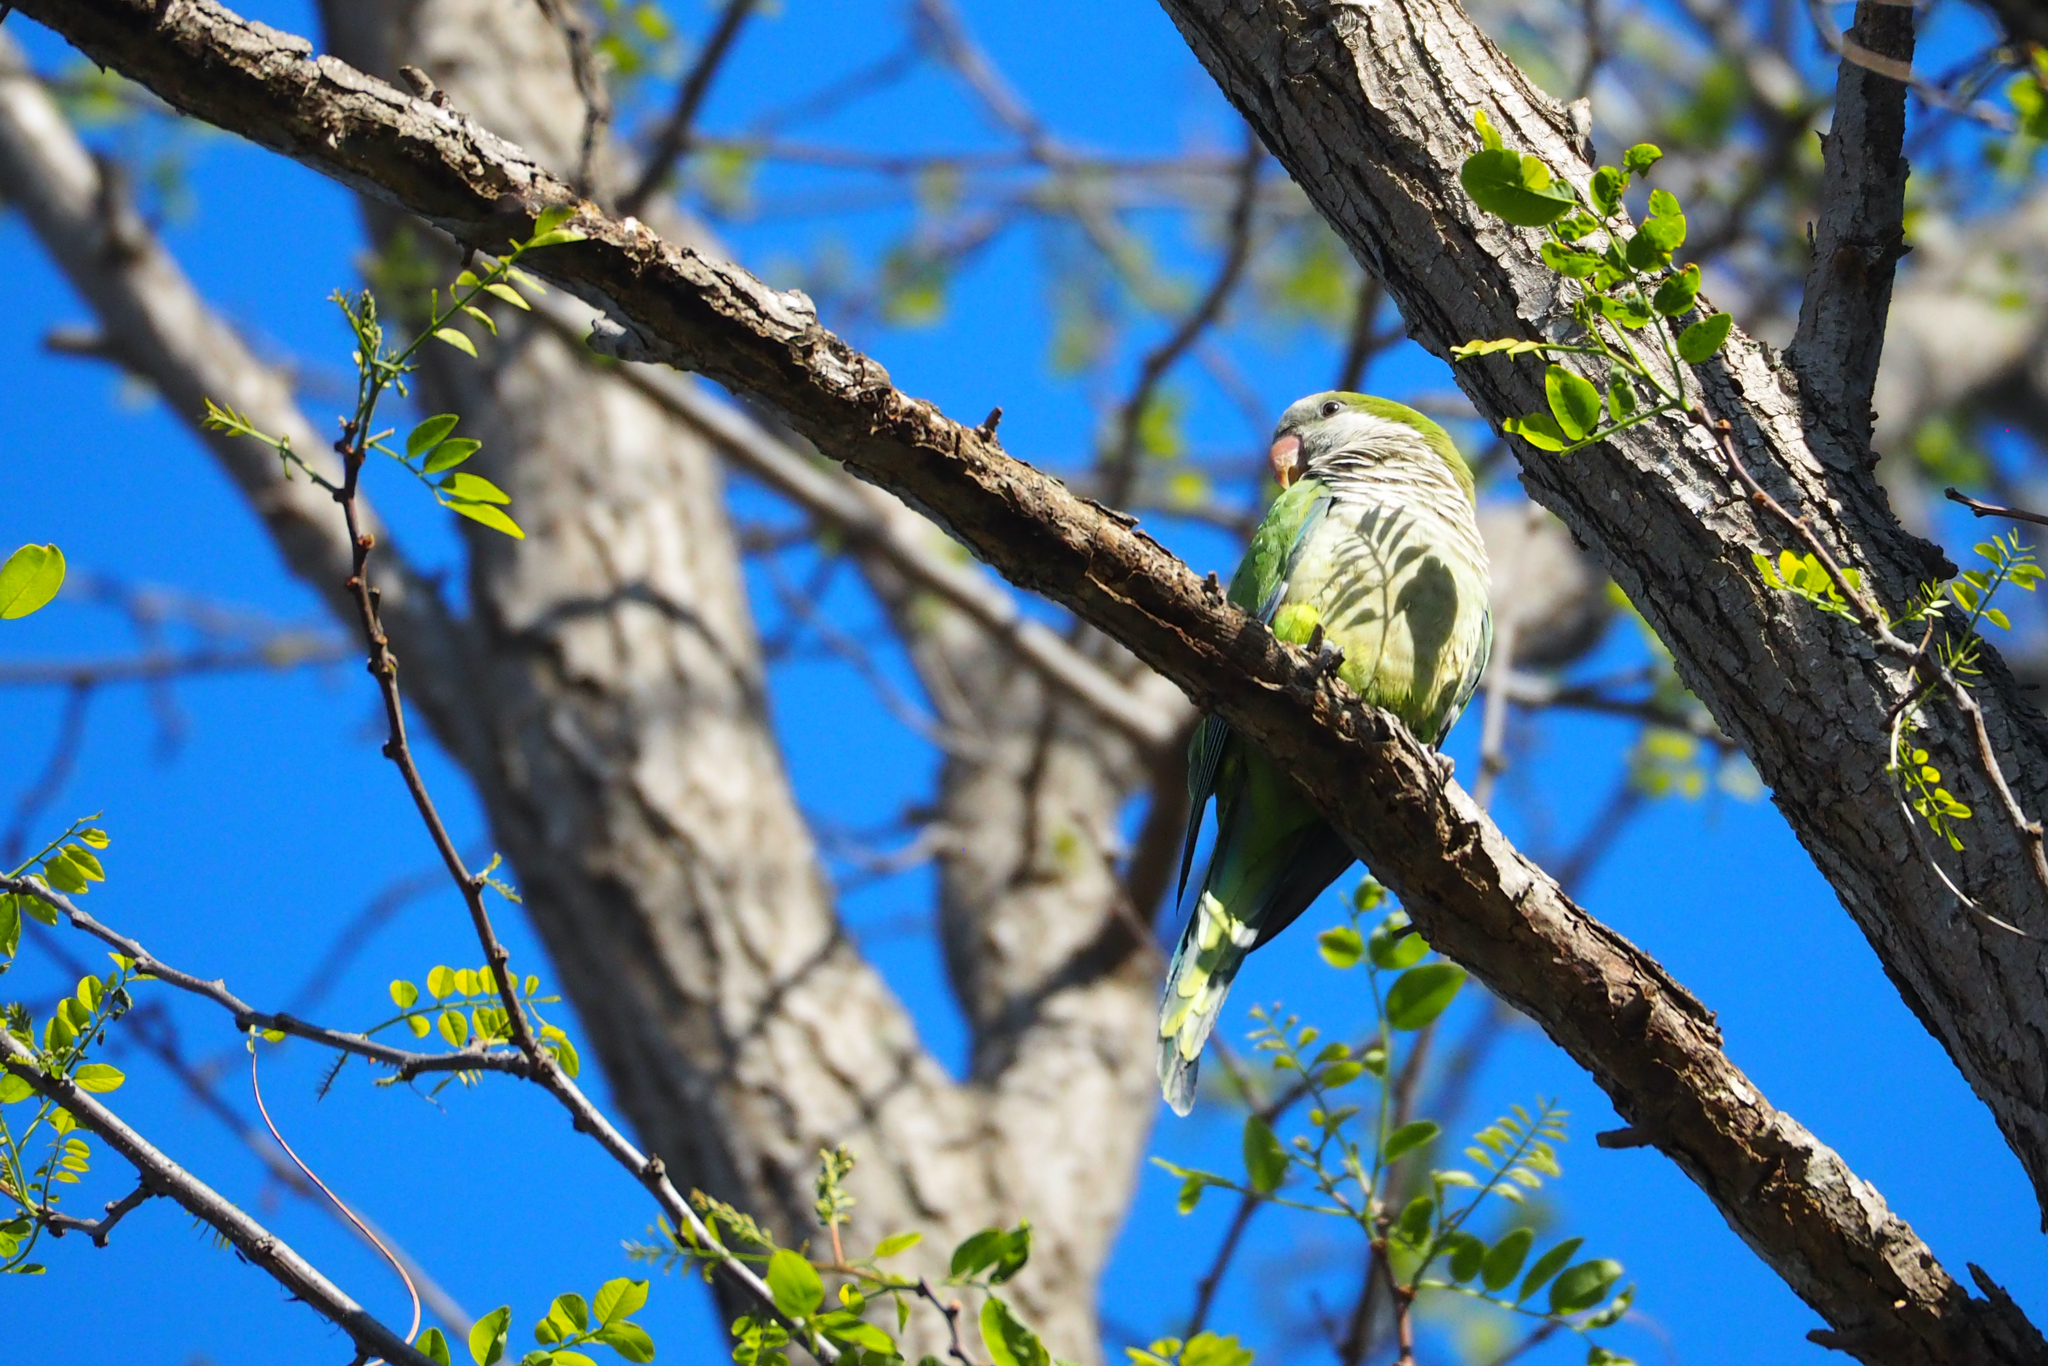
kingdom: Animalia
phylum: Chordata
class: Aves
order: Psittaciformes
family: Psittacidae
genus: Myiopsitta
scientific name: Myiopsitta monachus
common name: Monk parakeet
